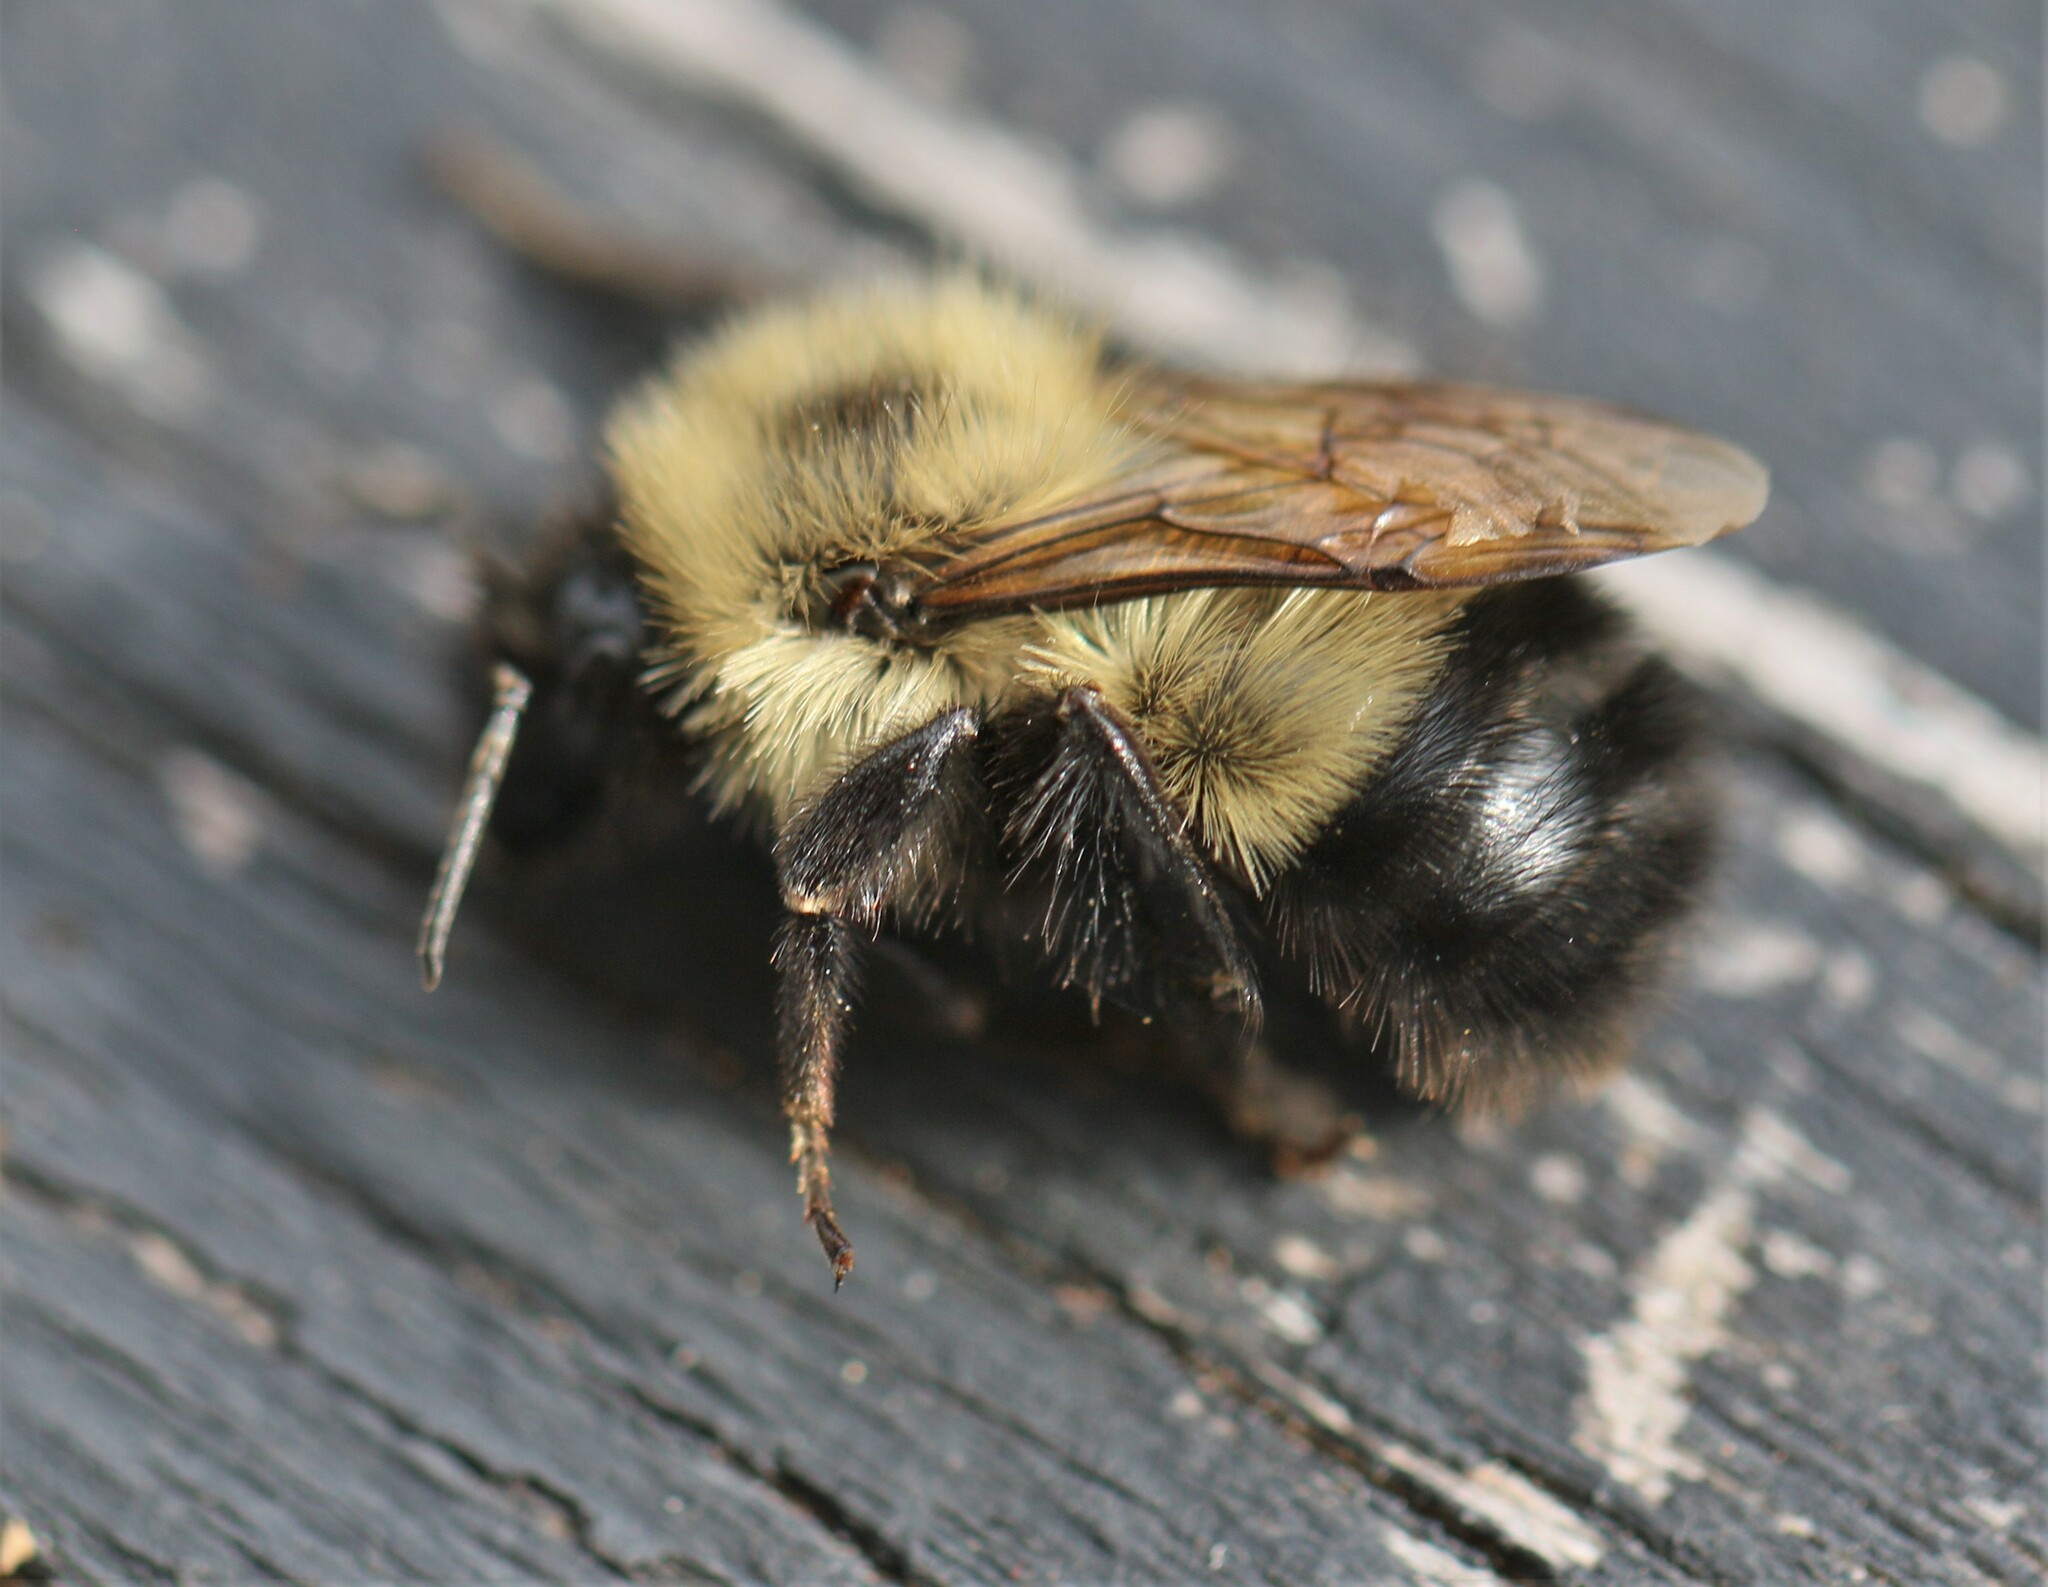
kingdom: Animalia
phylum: Arthropoda
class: Insecta
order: Hymenoptera
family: Apidae
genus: Bombus
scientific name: Bombus vagans
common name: Half-black bumble bee
